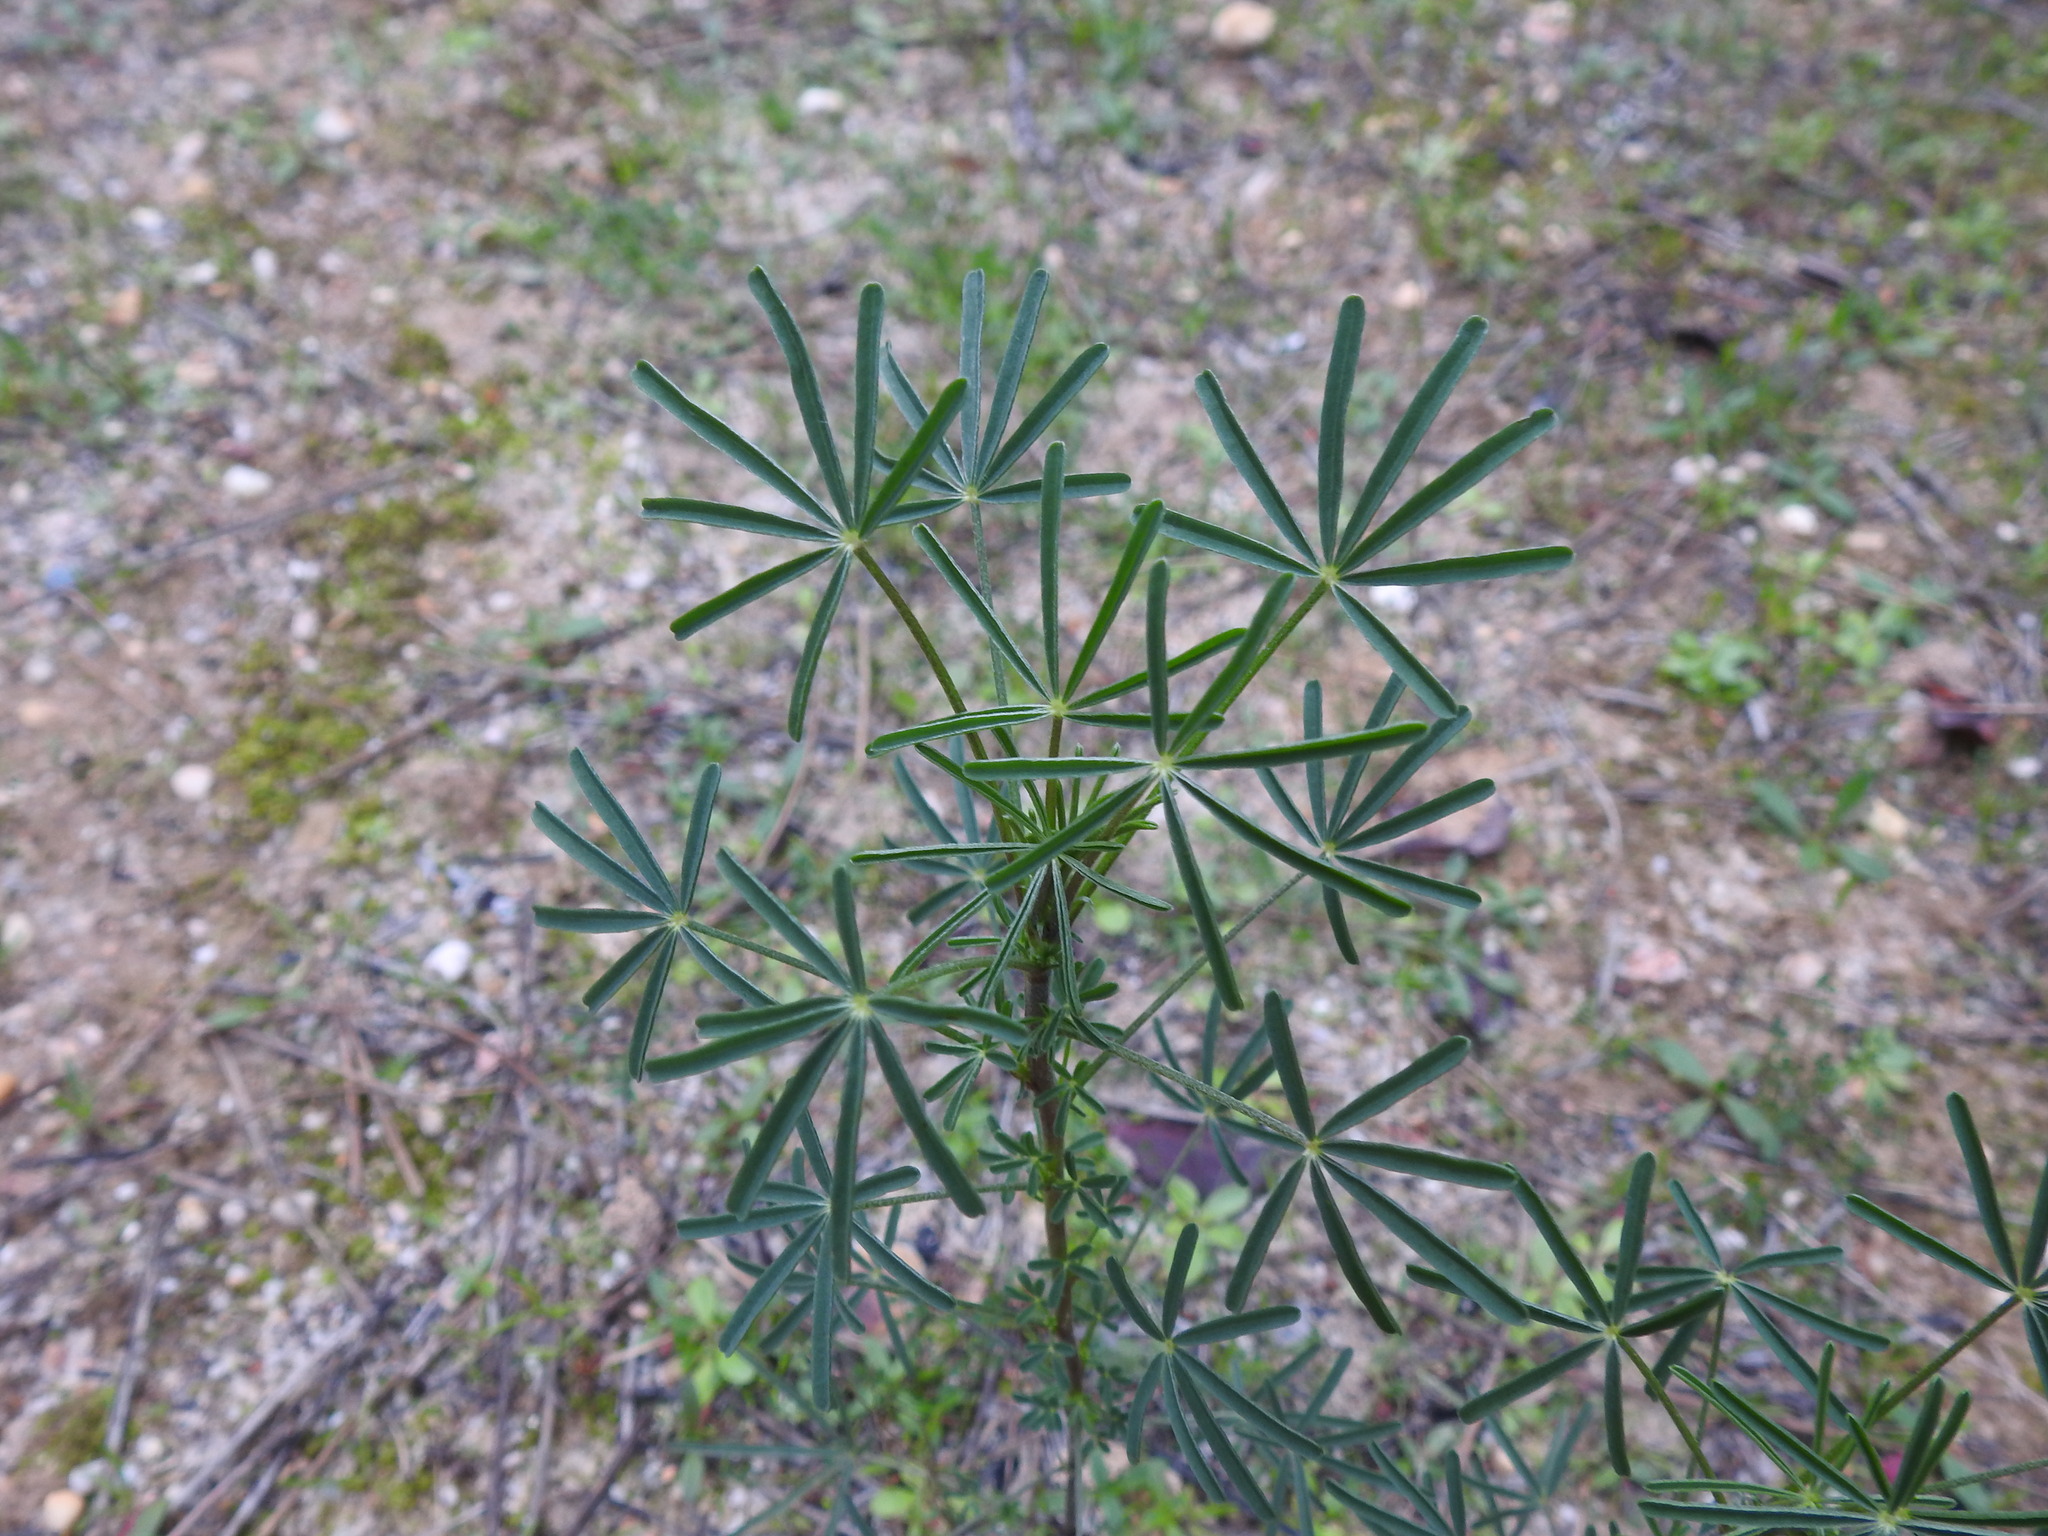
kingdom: Plantae
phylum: Tracheophyta
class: Magnoliopsida
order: Fabales
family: Fabaceae
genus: Lupinus
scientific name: Lupinus angustifolius
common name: Narrow-leaved lupin
